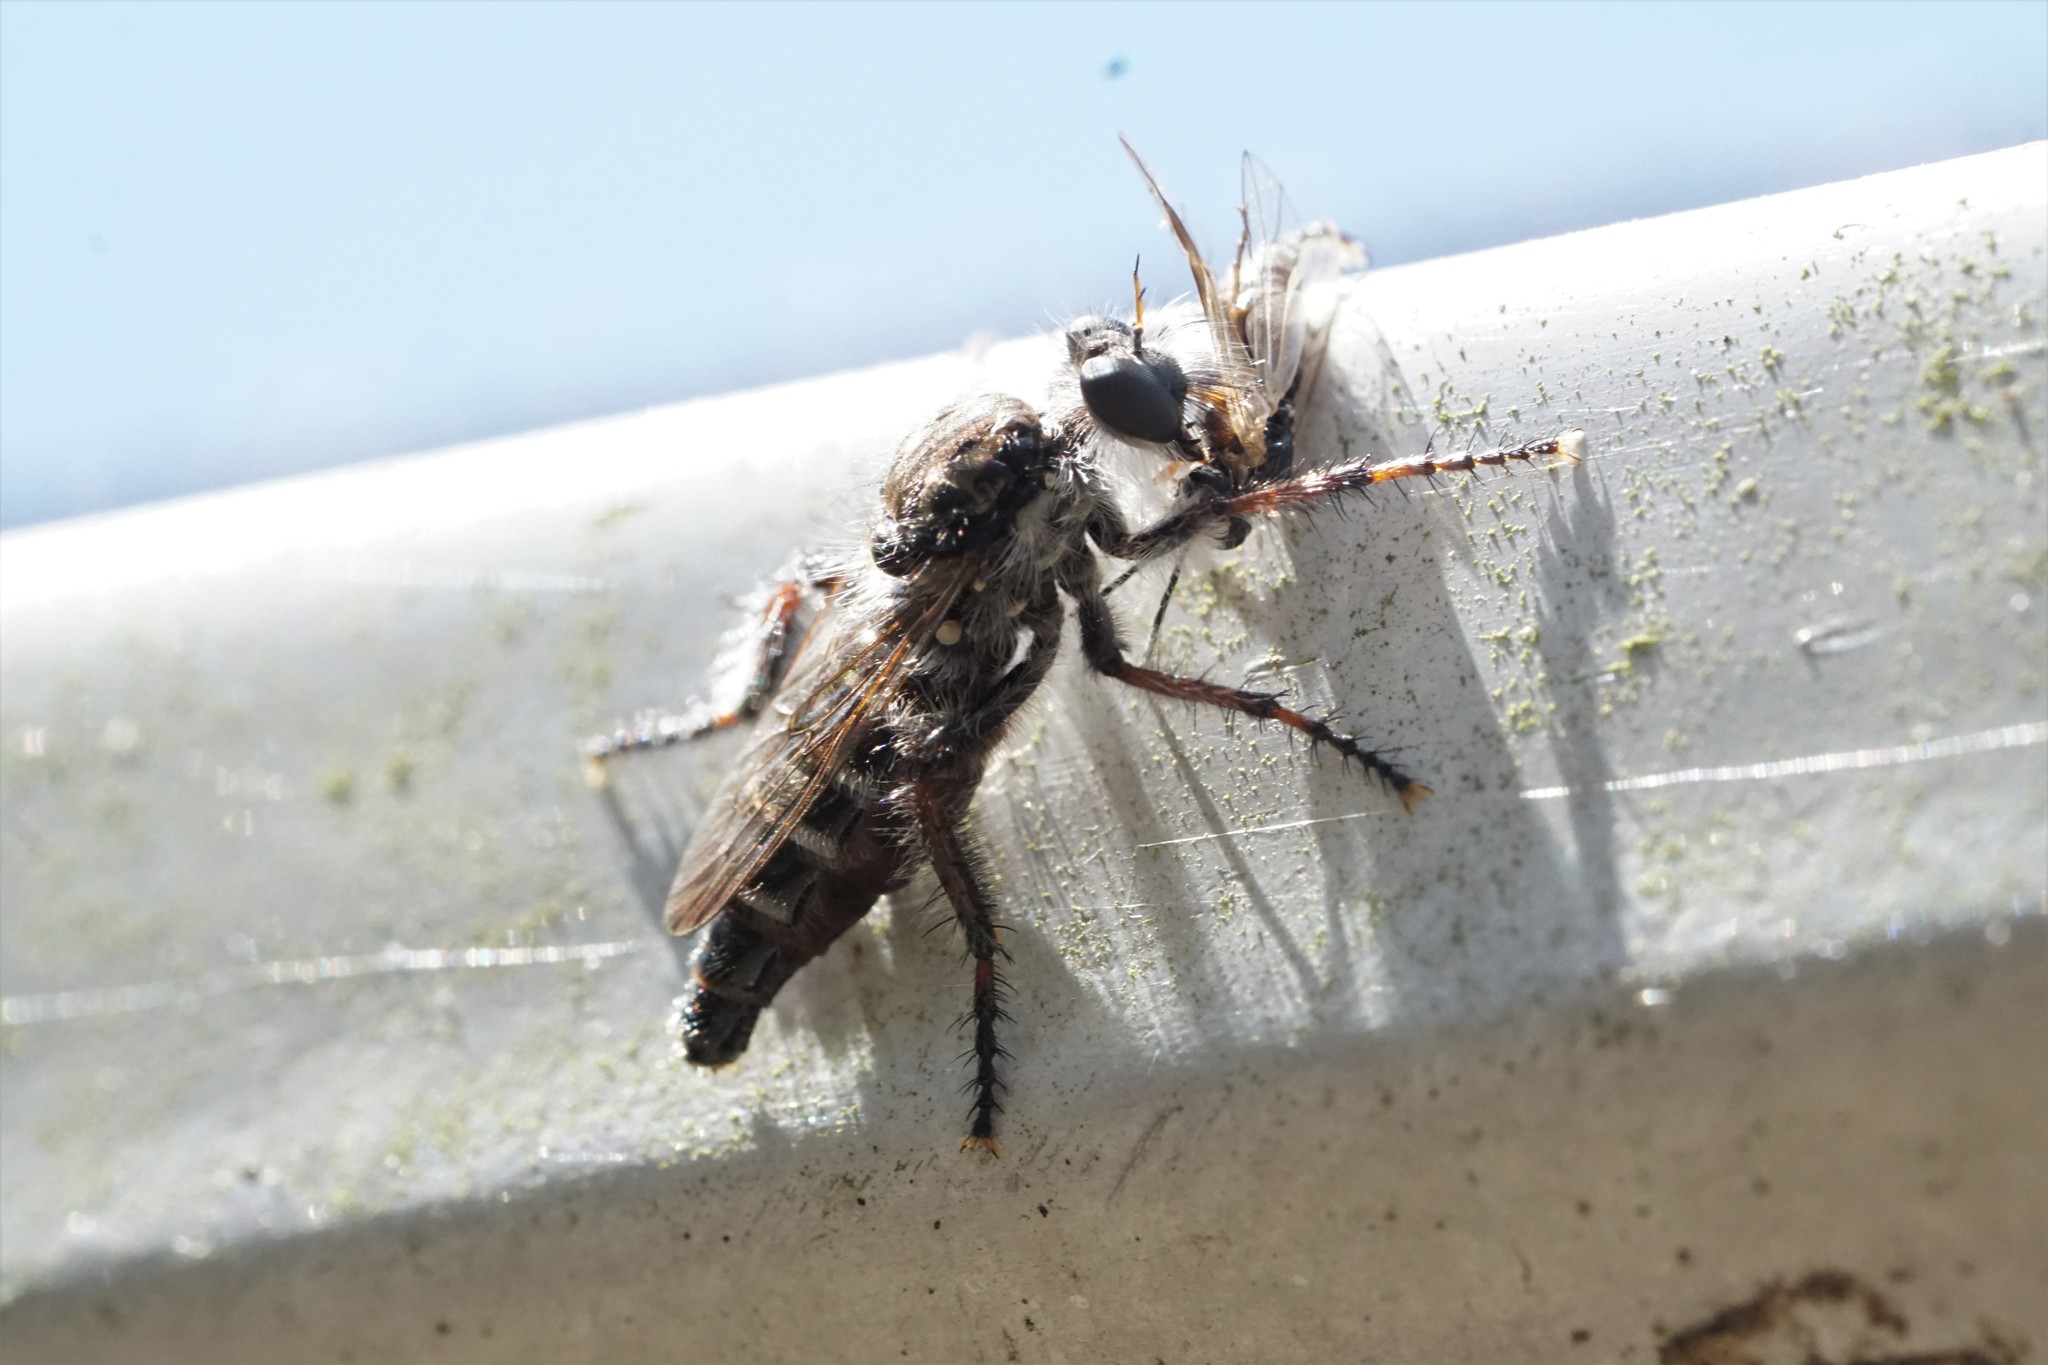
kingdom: Animalia
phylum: Arthropoda
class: Insecta
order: Diptera
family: Asilidae
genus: Cyrtopogon
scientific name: Cyrtopogon marginalis
